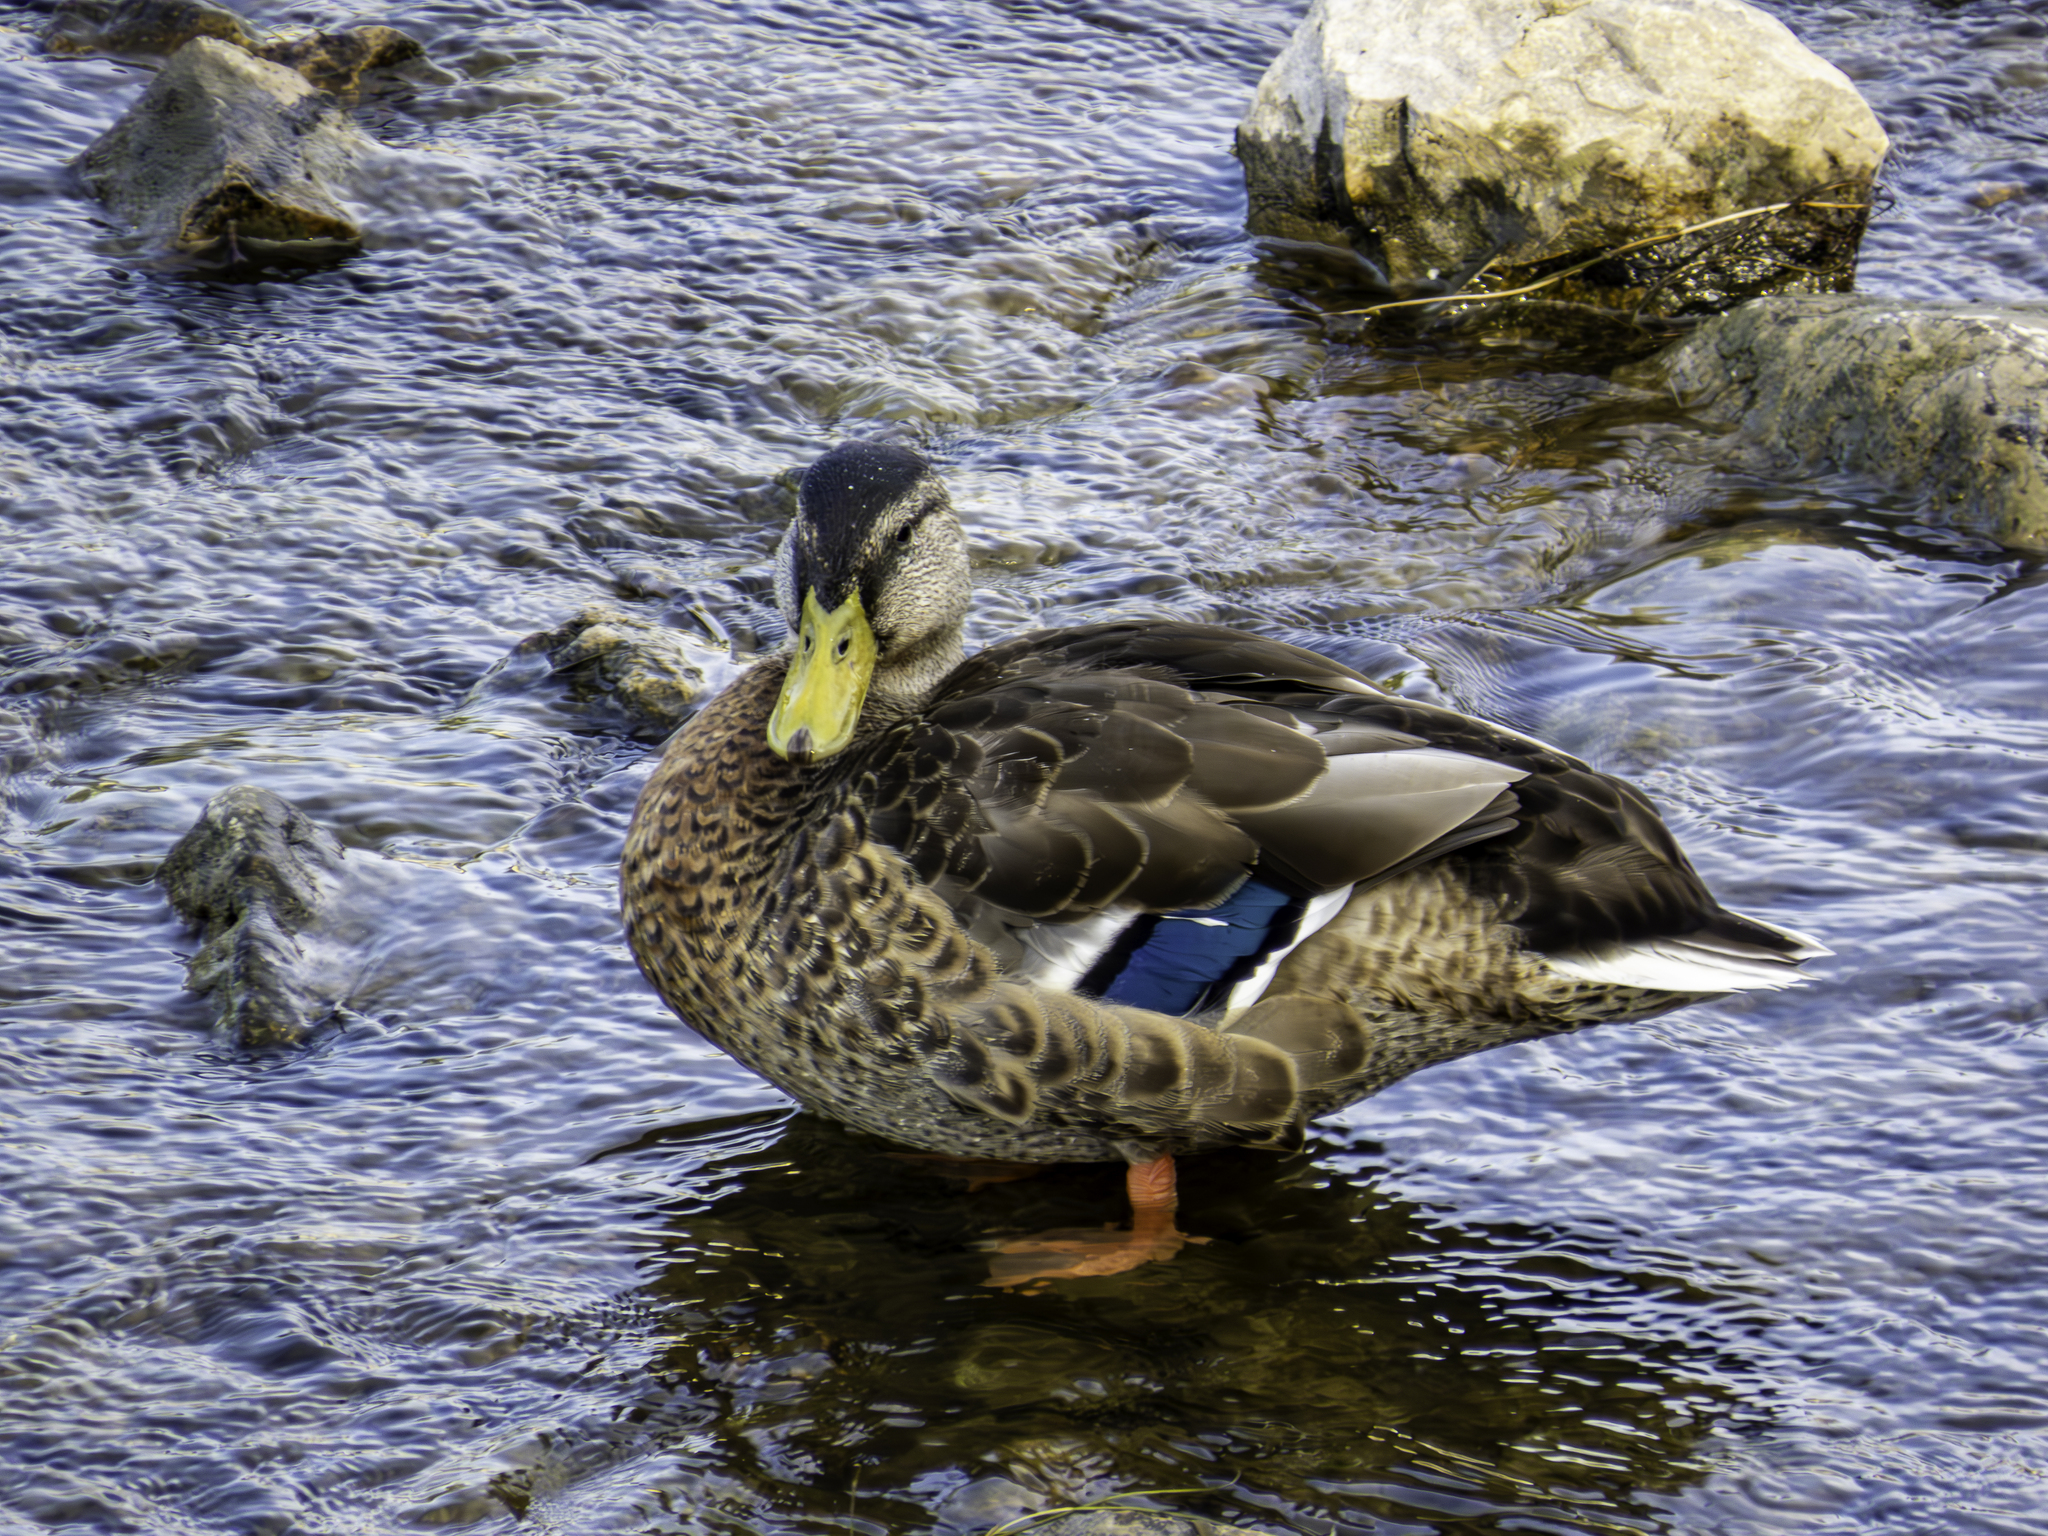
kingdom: Animalia
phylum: Chordata
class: Aves
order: Anseriformes
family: Anatidae
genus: Anas
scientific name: Anas platyrhynchos
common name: Mallard
